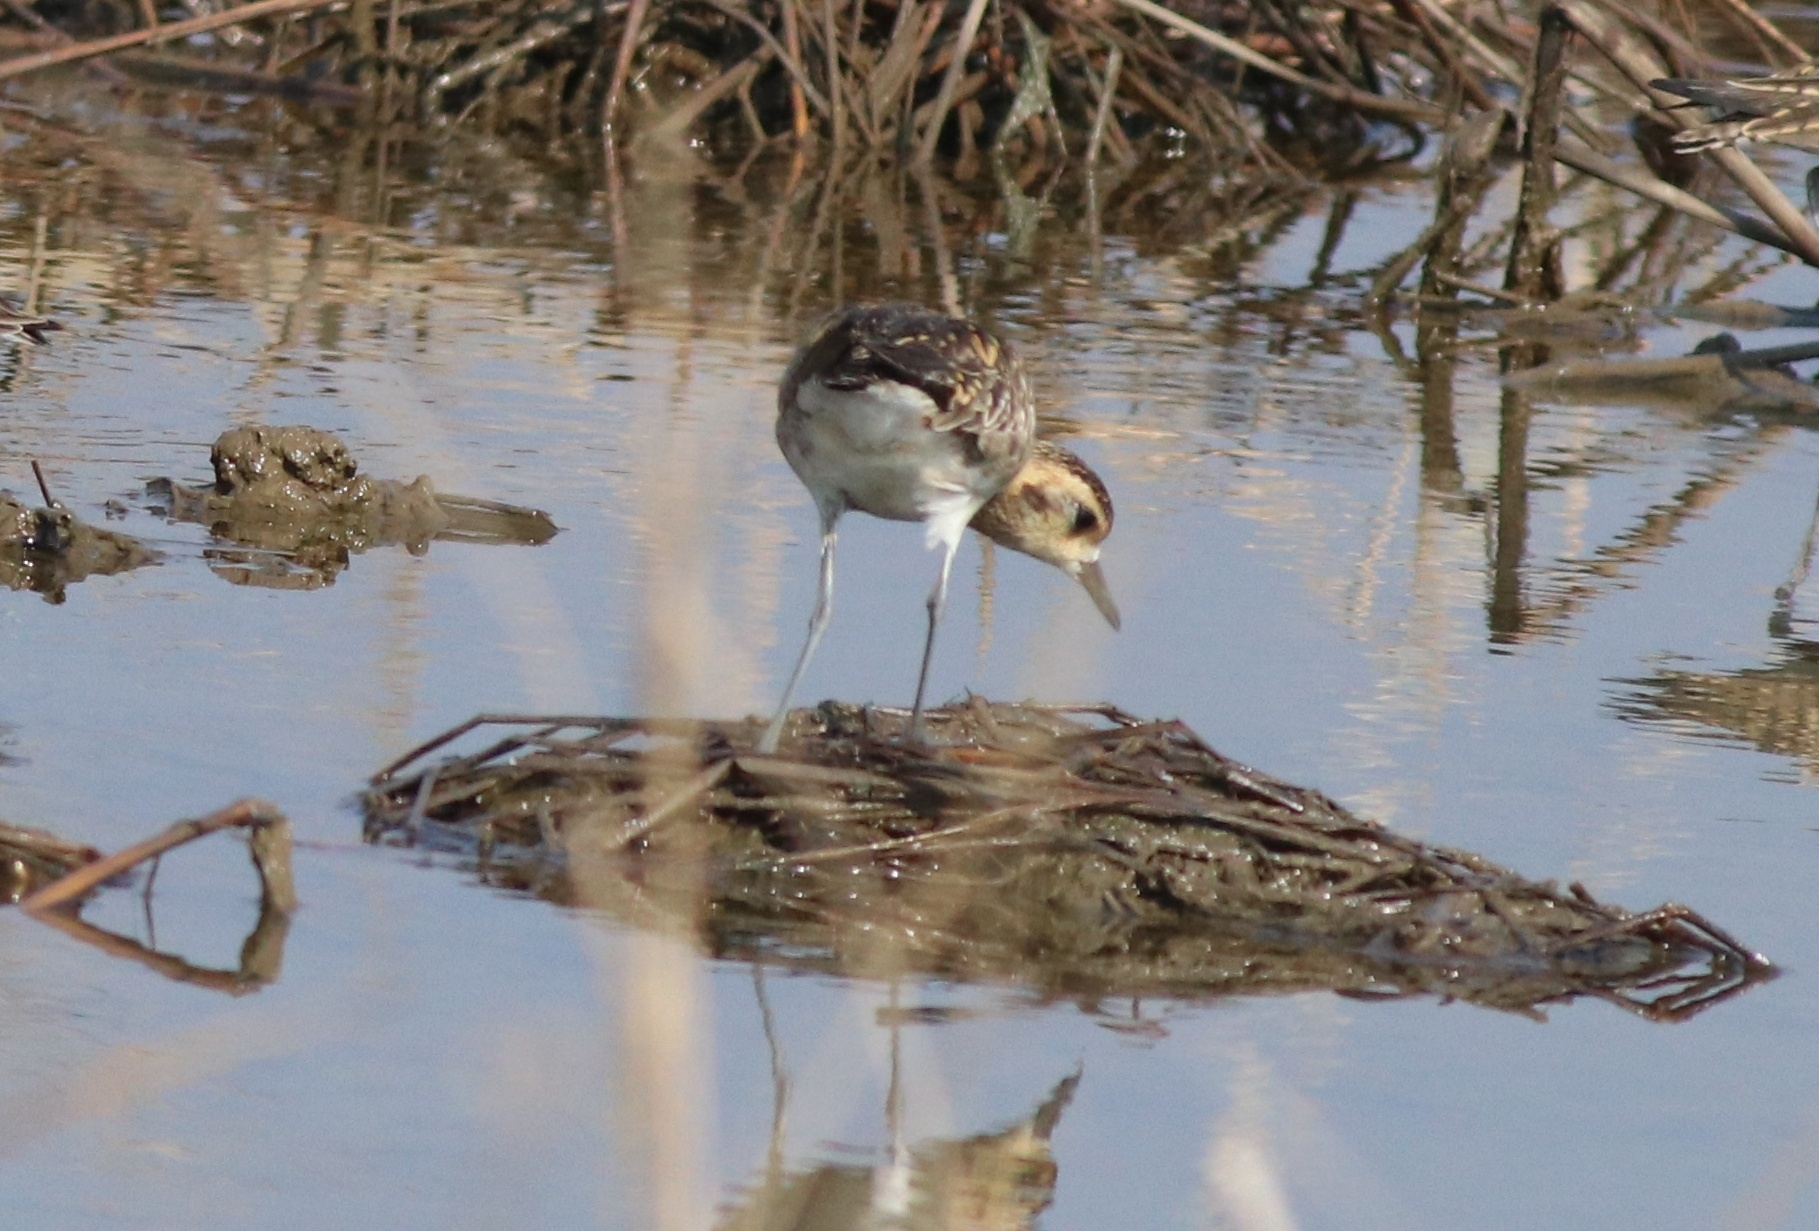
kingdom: Animalia
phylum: Chordata
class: Aves
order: Charadriiformes
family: Charadriidae
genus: Pluvialis
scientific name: Pluvialis fulva
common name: Pacific golden plover
